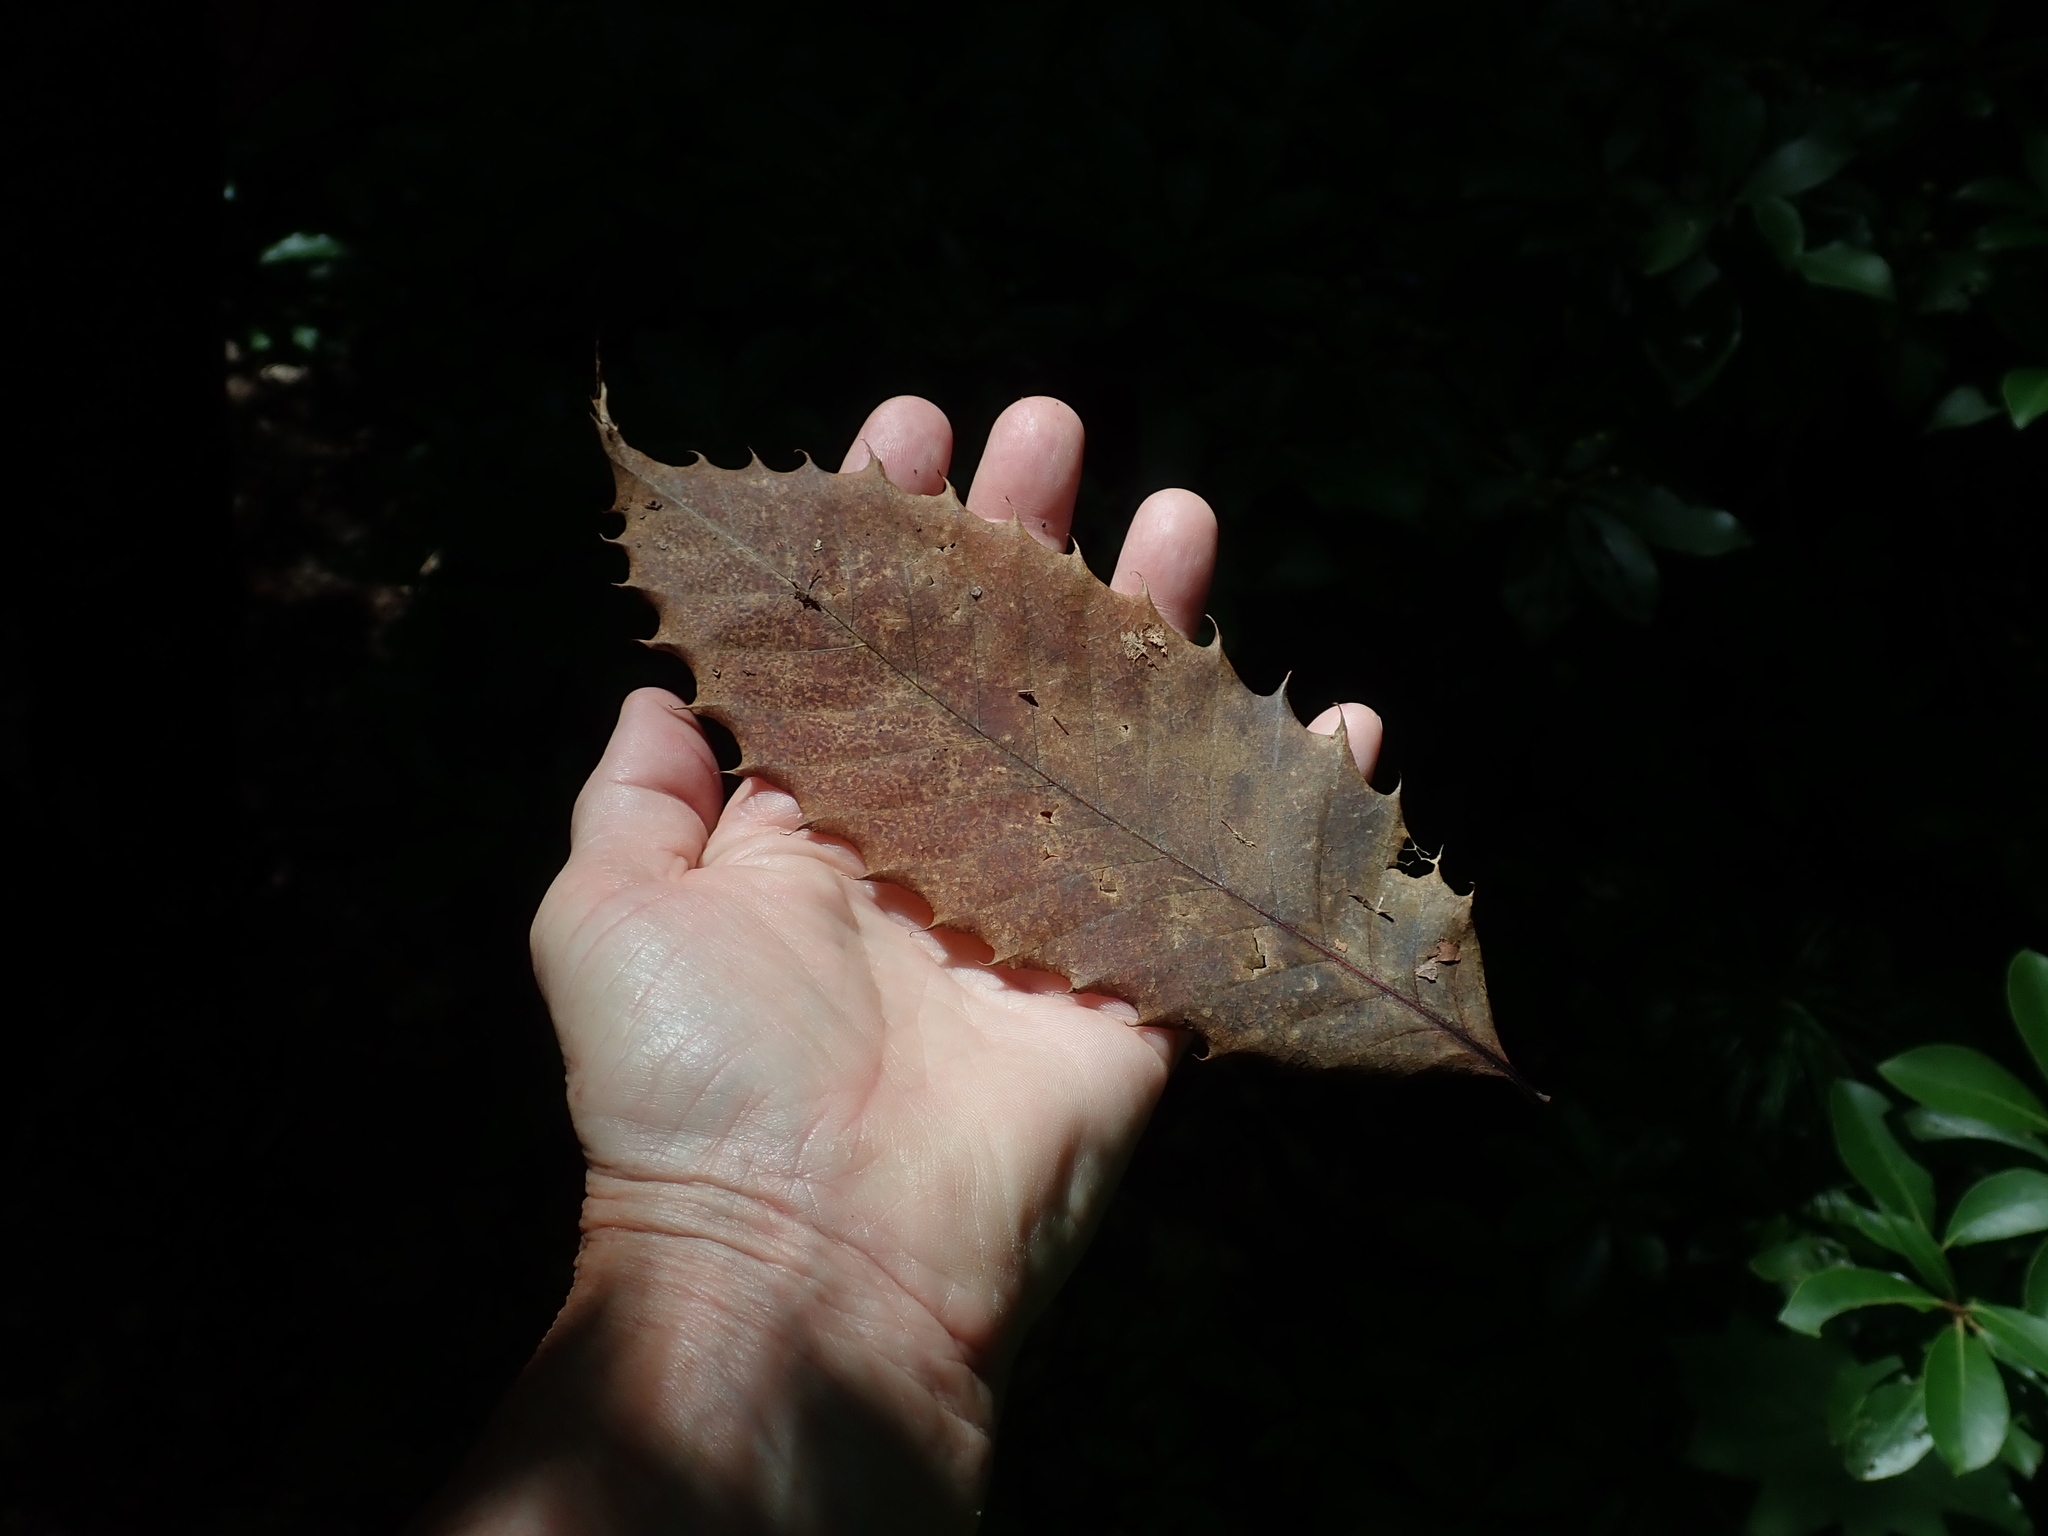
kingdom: Plantae
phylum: Tracheophyta
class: Magnoliopsida
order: Fagales
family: Fagaceae
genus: Castanea
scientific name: Castanea dentata
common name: American chestnut
